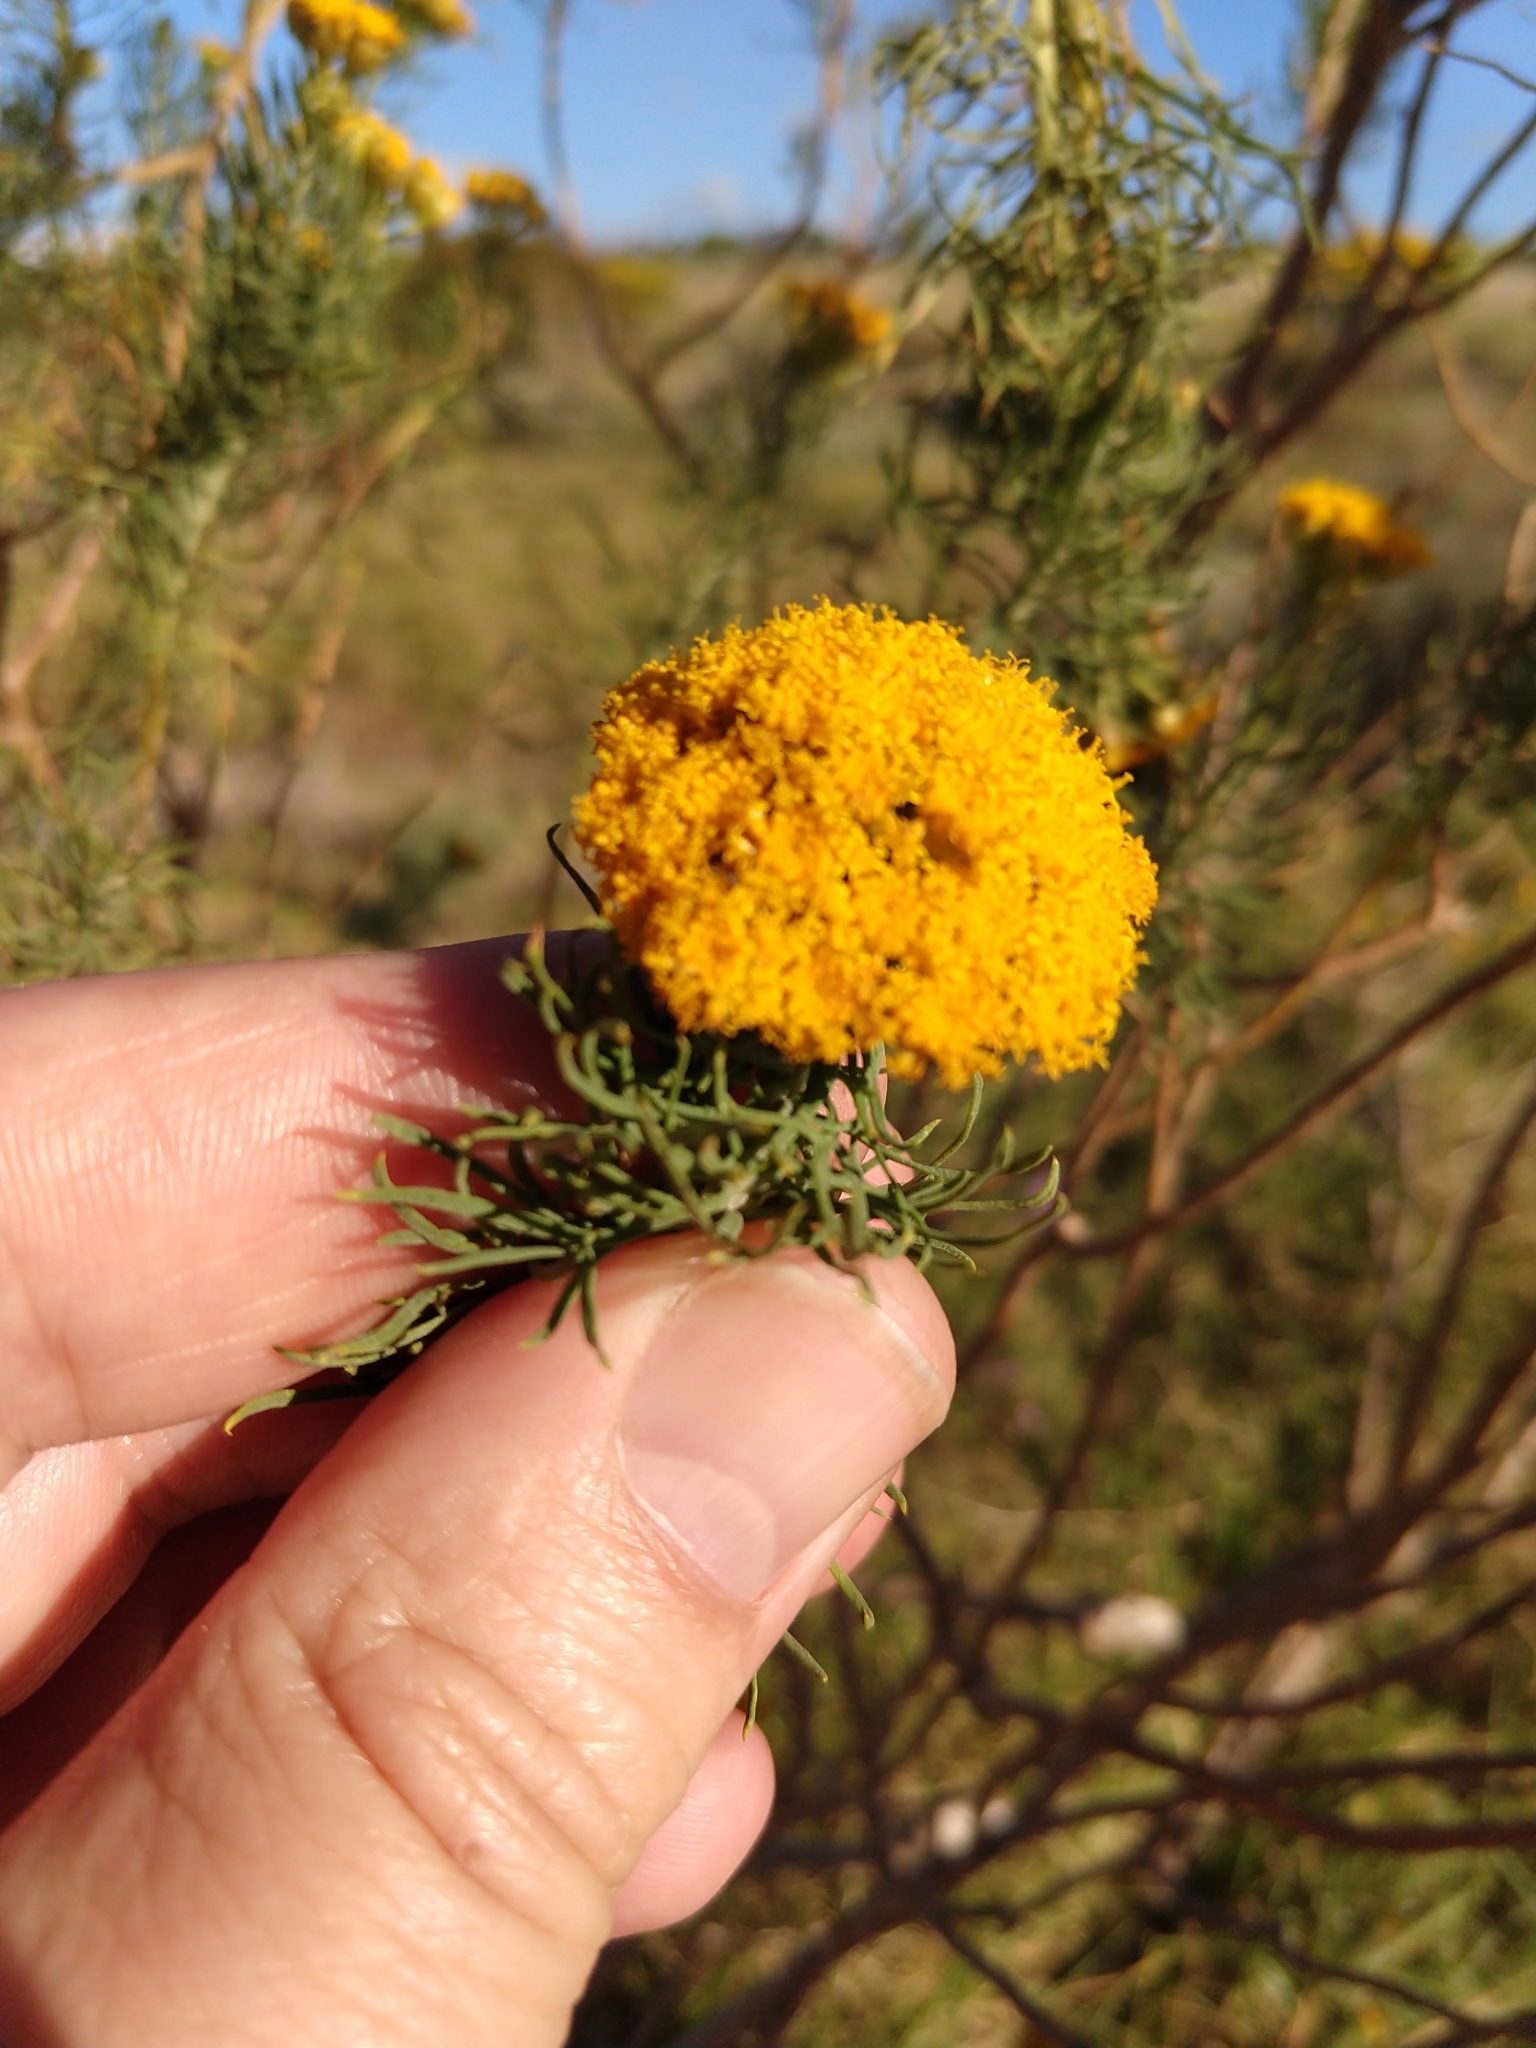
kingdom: Plantae
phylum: Tracheophyta
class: Magnoliopsida
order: Asterales
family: Asteraceae
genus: Hymenolepis
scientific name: Hymenolepis crithmifolia
